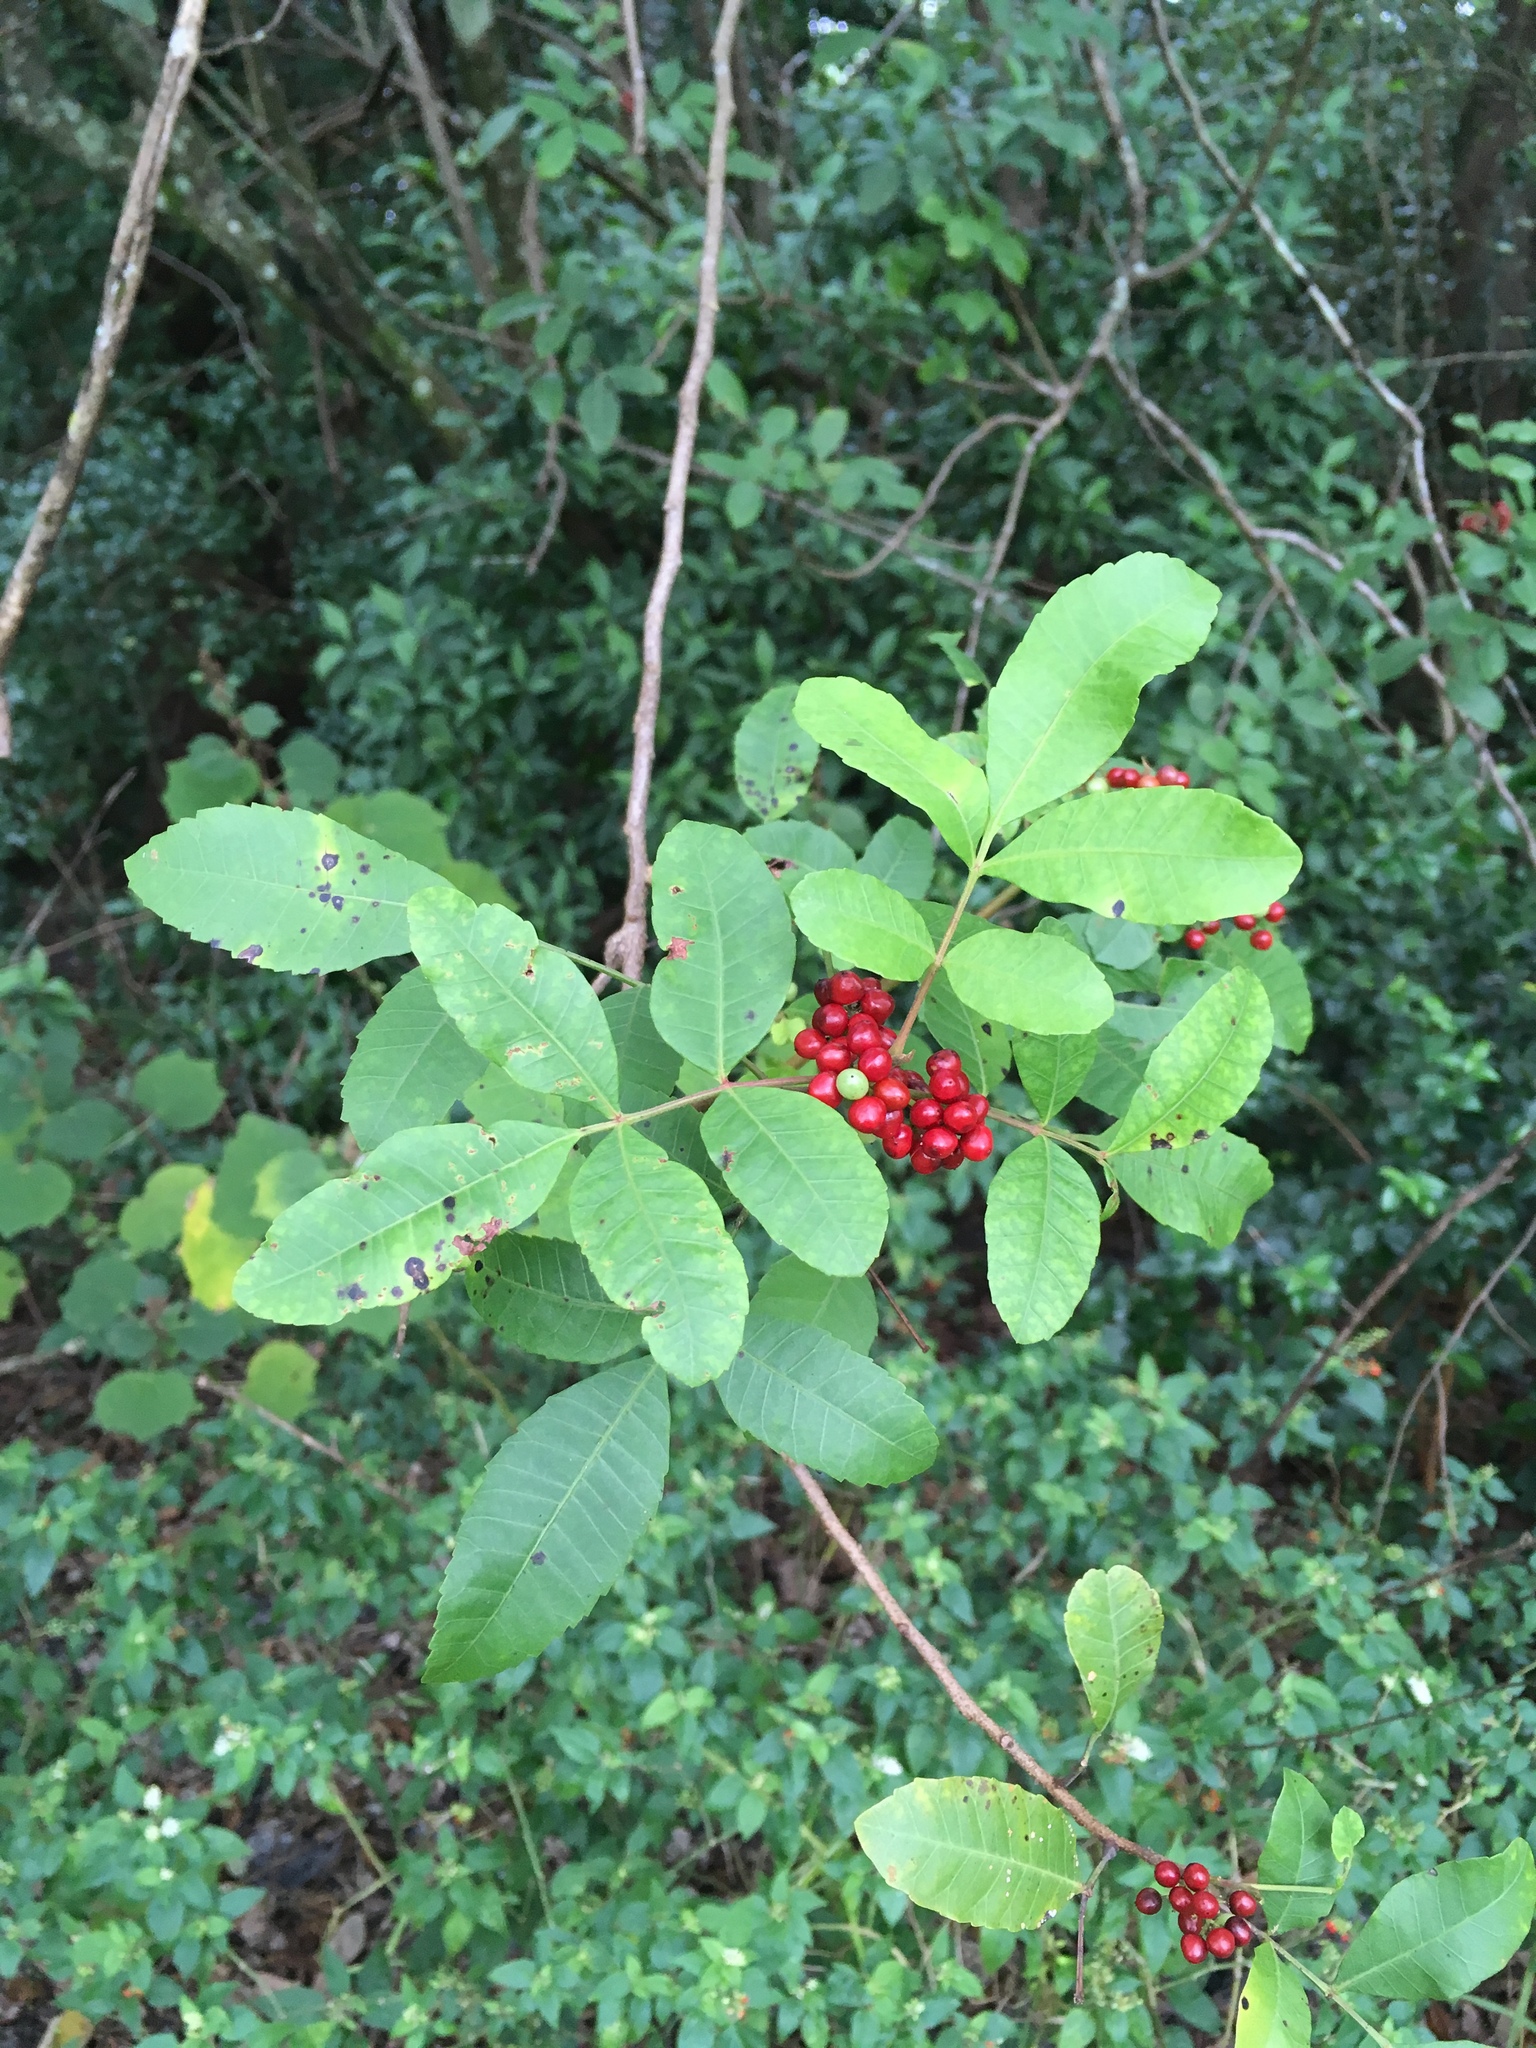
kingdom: Plantae
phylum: Tracheophyta
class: Magnoliopsida
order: Sapindales
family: Anacardiaceae
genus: Schinus
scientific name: Schinus terebinthifolia
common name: Brazilian peppertree
